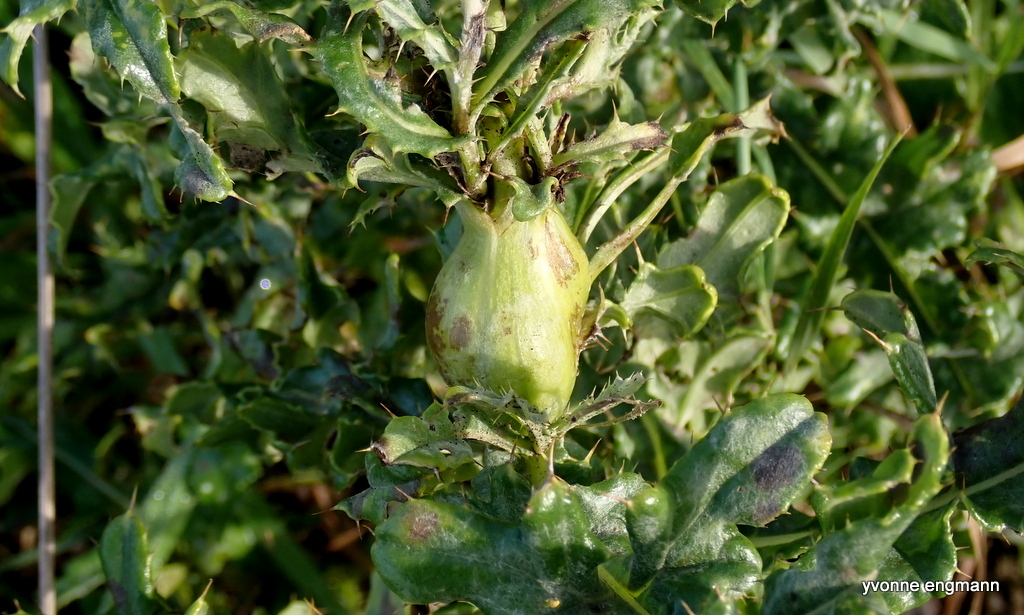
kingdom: Animalia
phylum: Arthropoda
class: Insecta
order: Diptera
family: Tephritidae
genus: Urophora
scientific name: Urophora cardui
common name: Fruit fly
